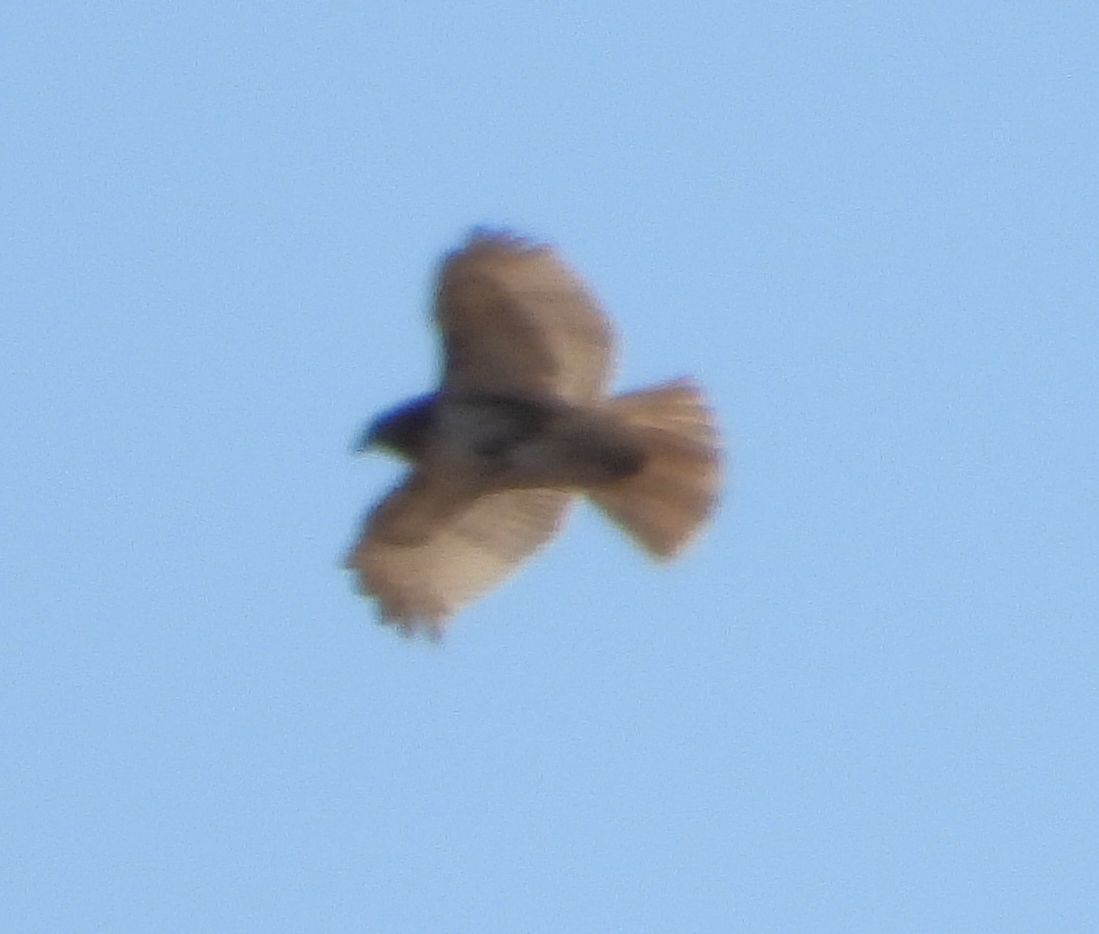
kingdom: Animalia
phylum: Chordata
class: Aves
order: Accipitriformes
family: Accipitridae
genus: Buteo
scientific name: Buteo jamaicensis
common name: Red-tailed hawk
